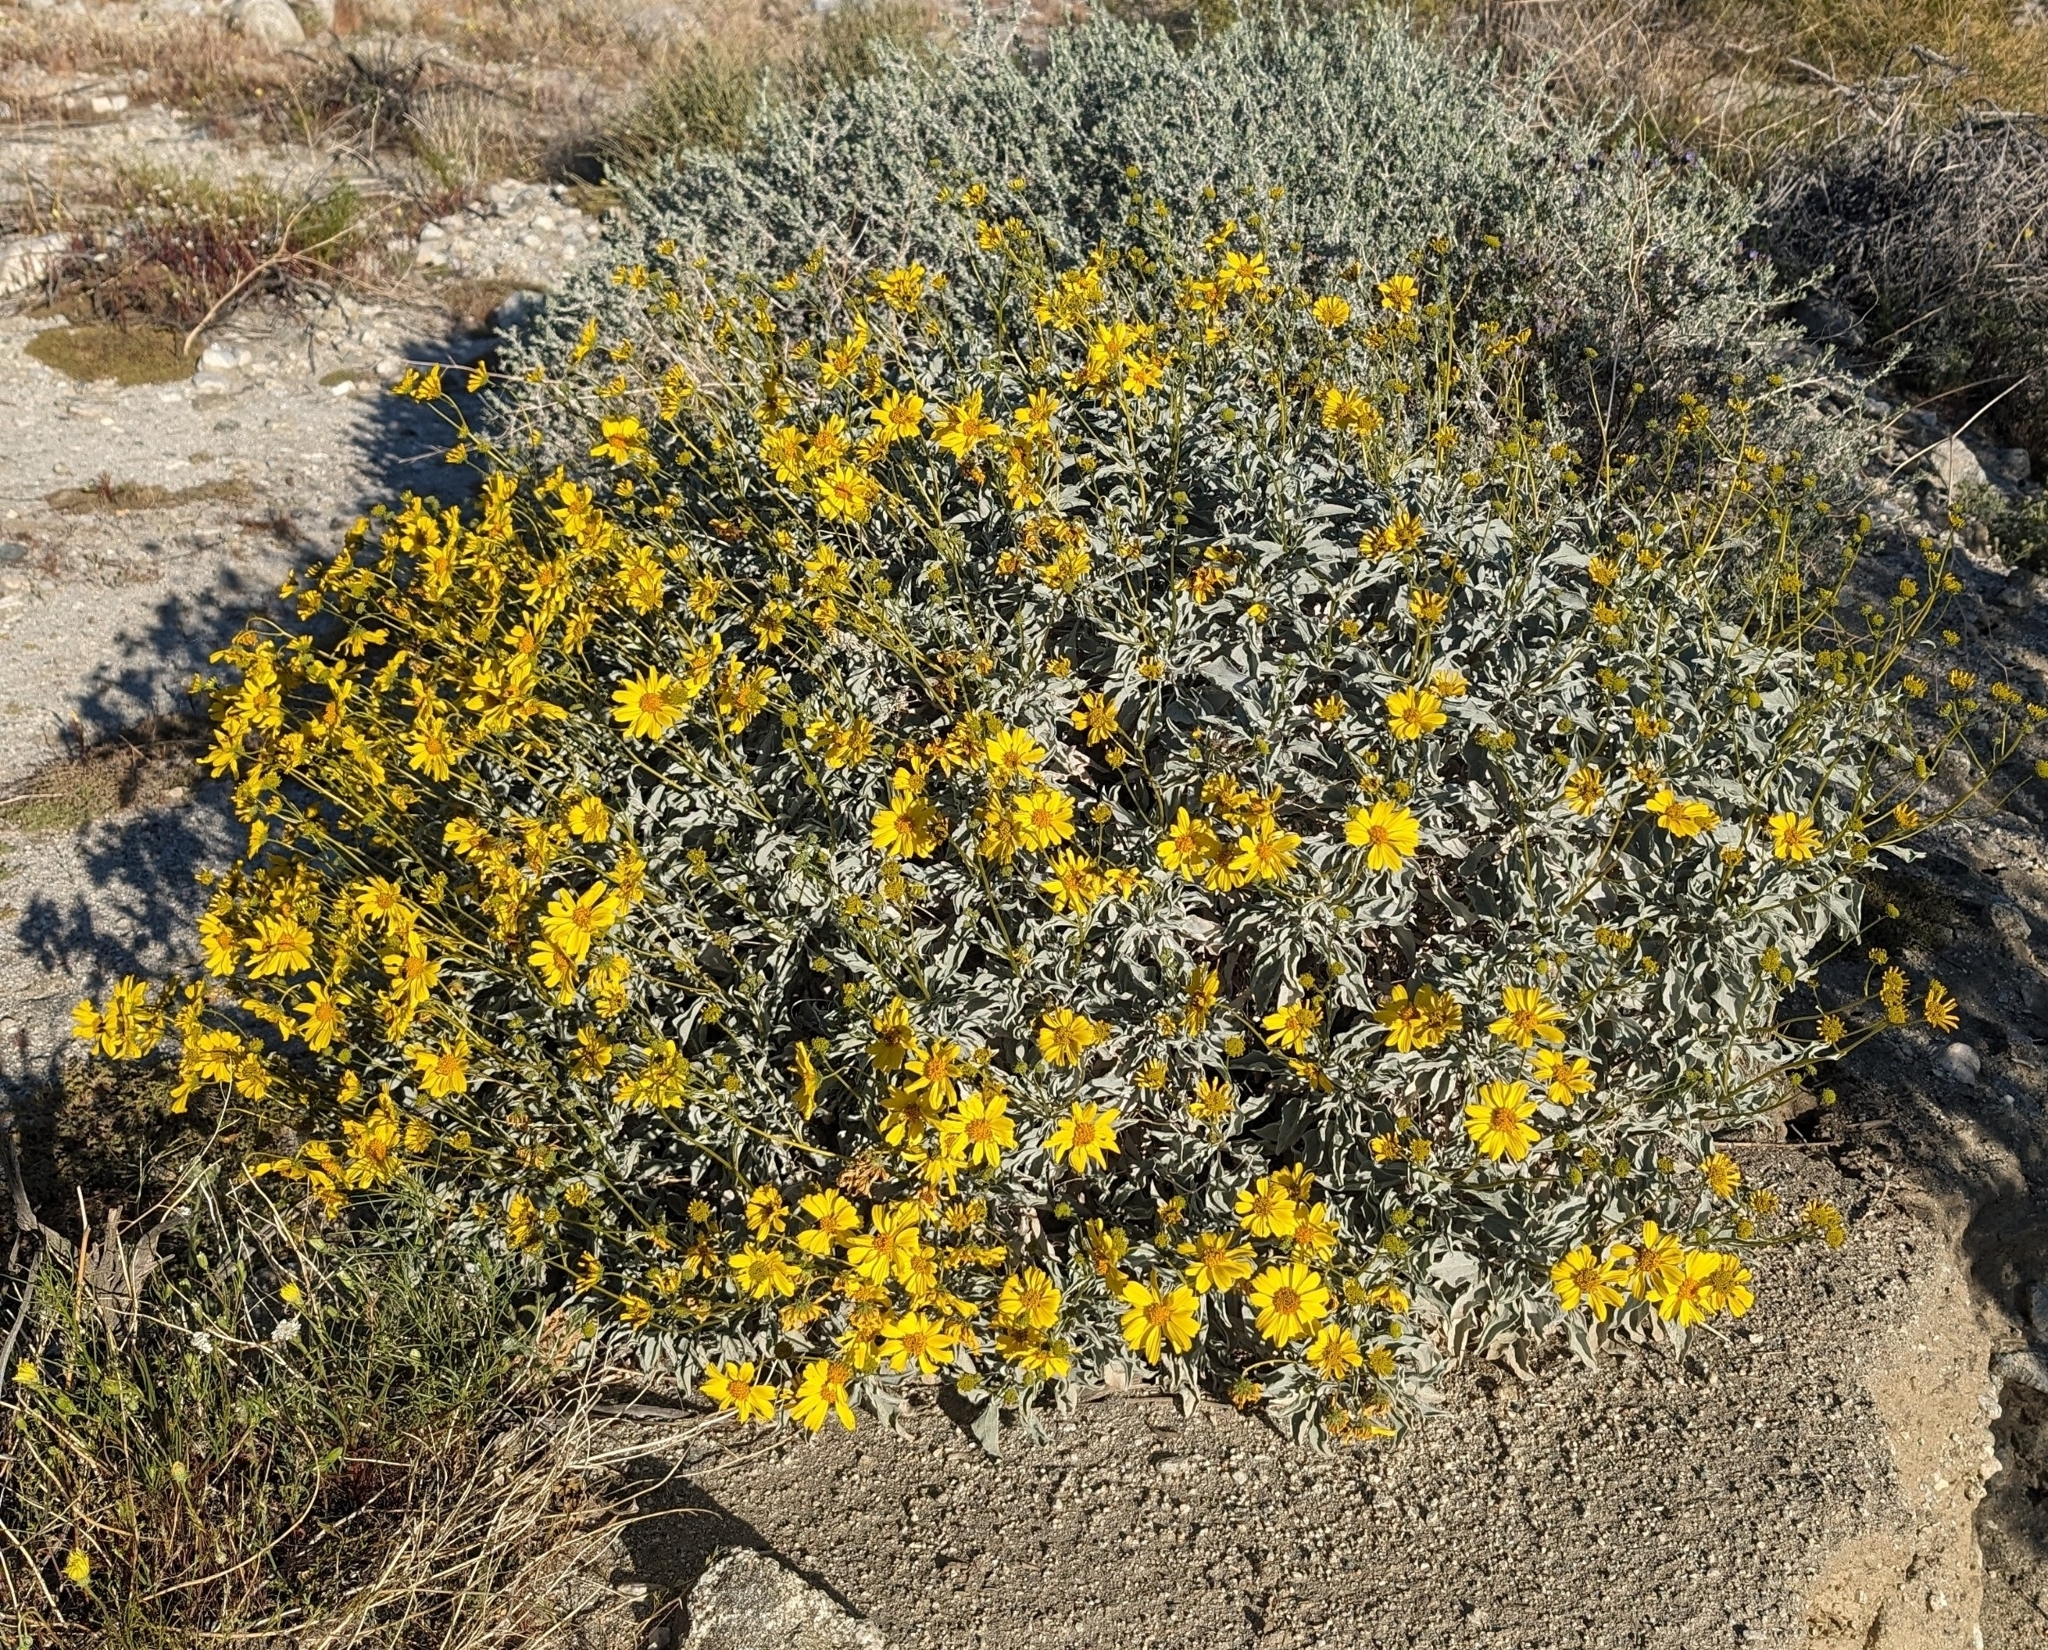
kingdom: Plantae
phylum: Tracheophyta
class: Magnoliopsida
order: Asterales
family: Asteraceae
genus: Encelia
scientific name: Encelia farinosa
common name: Brittlebush
